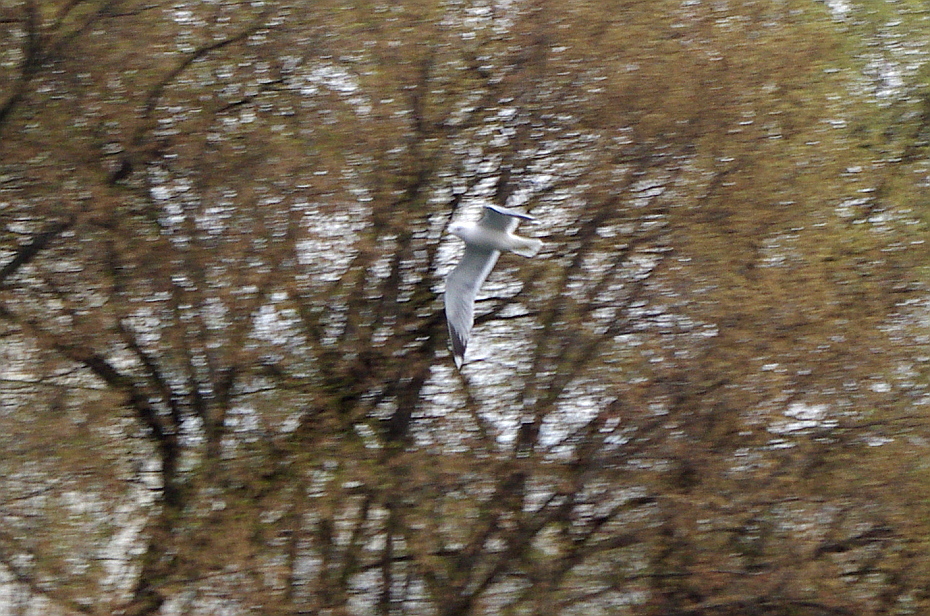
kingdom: Animalia
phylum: Chordata
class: Aves
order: Charadriiformes
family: Laridae
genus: Larus
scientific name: Larus canus
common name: Mew gull
